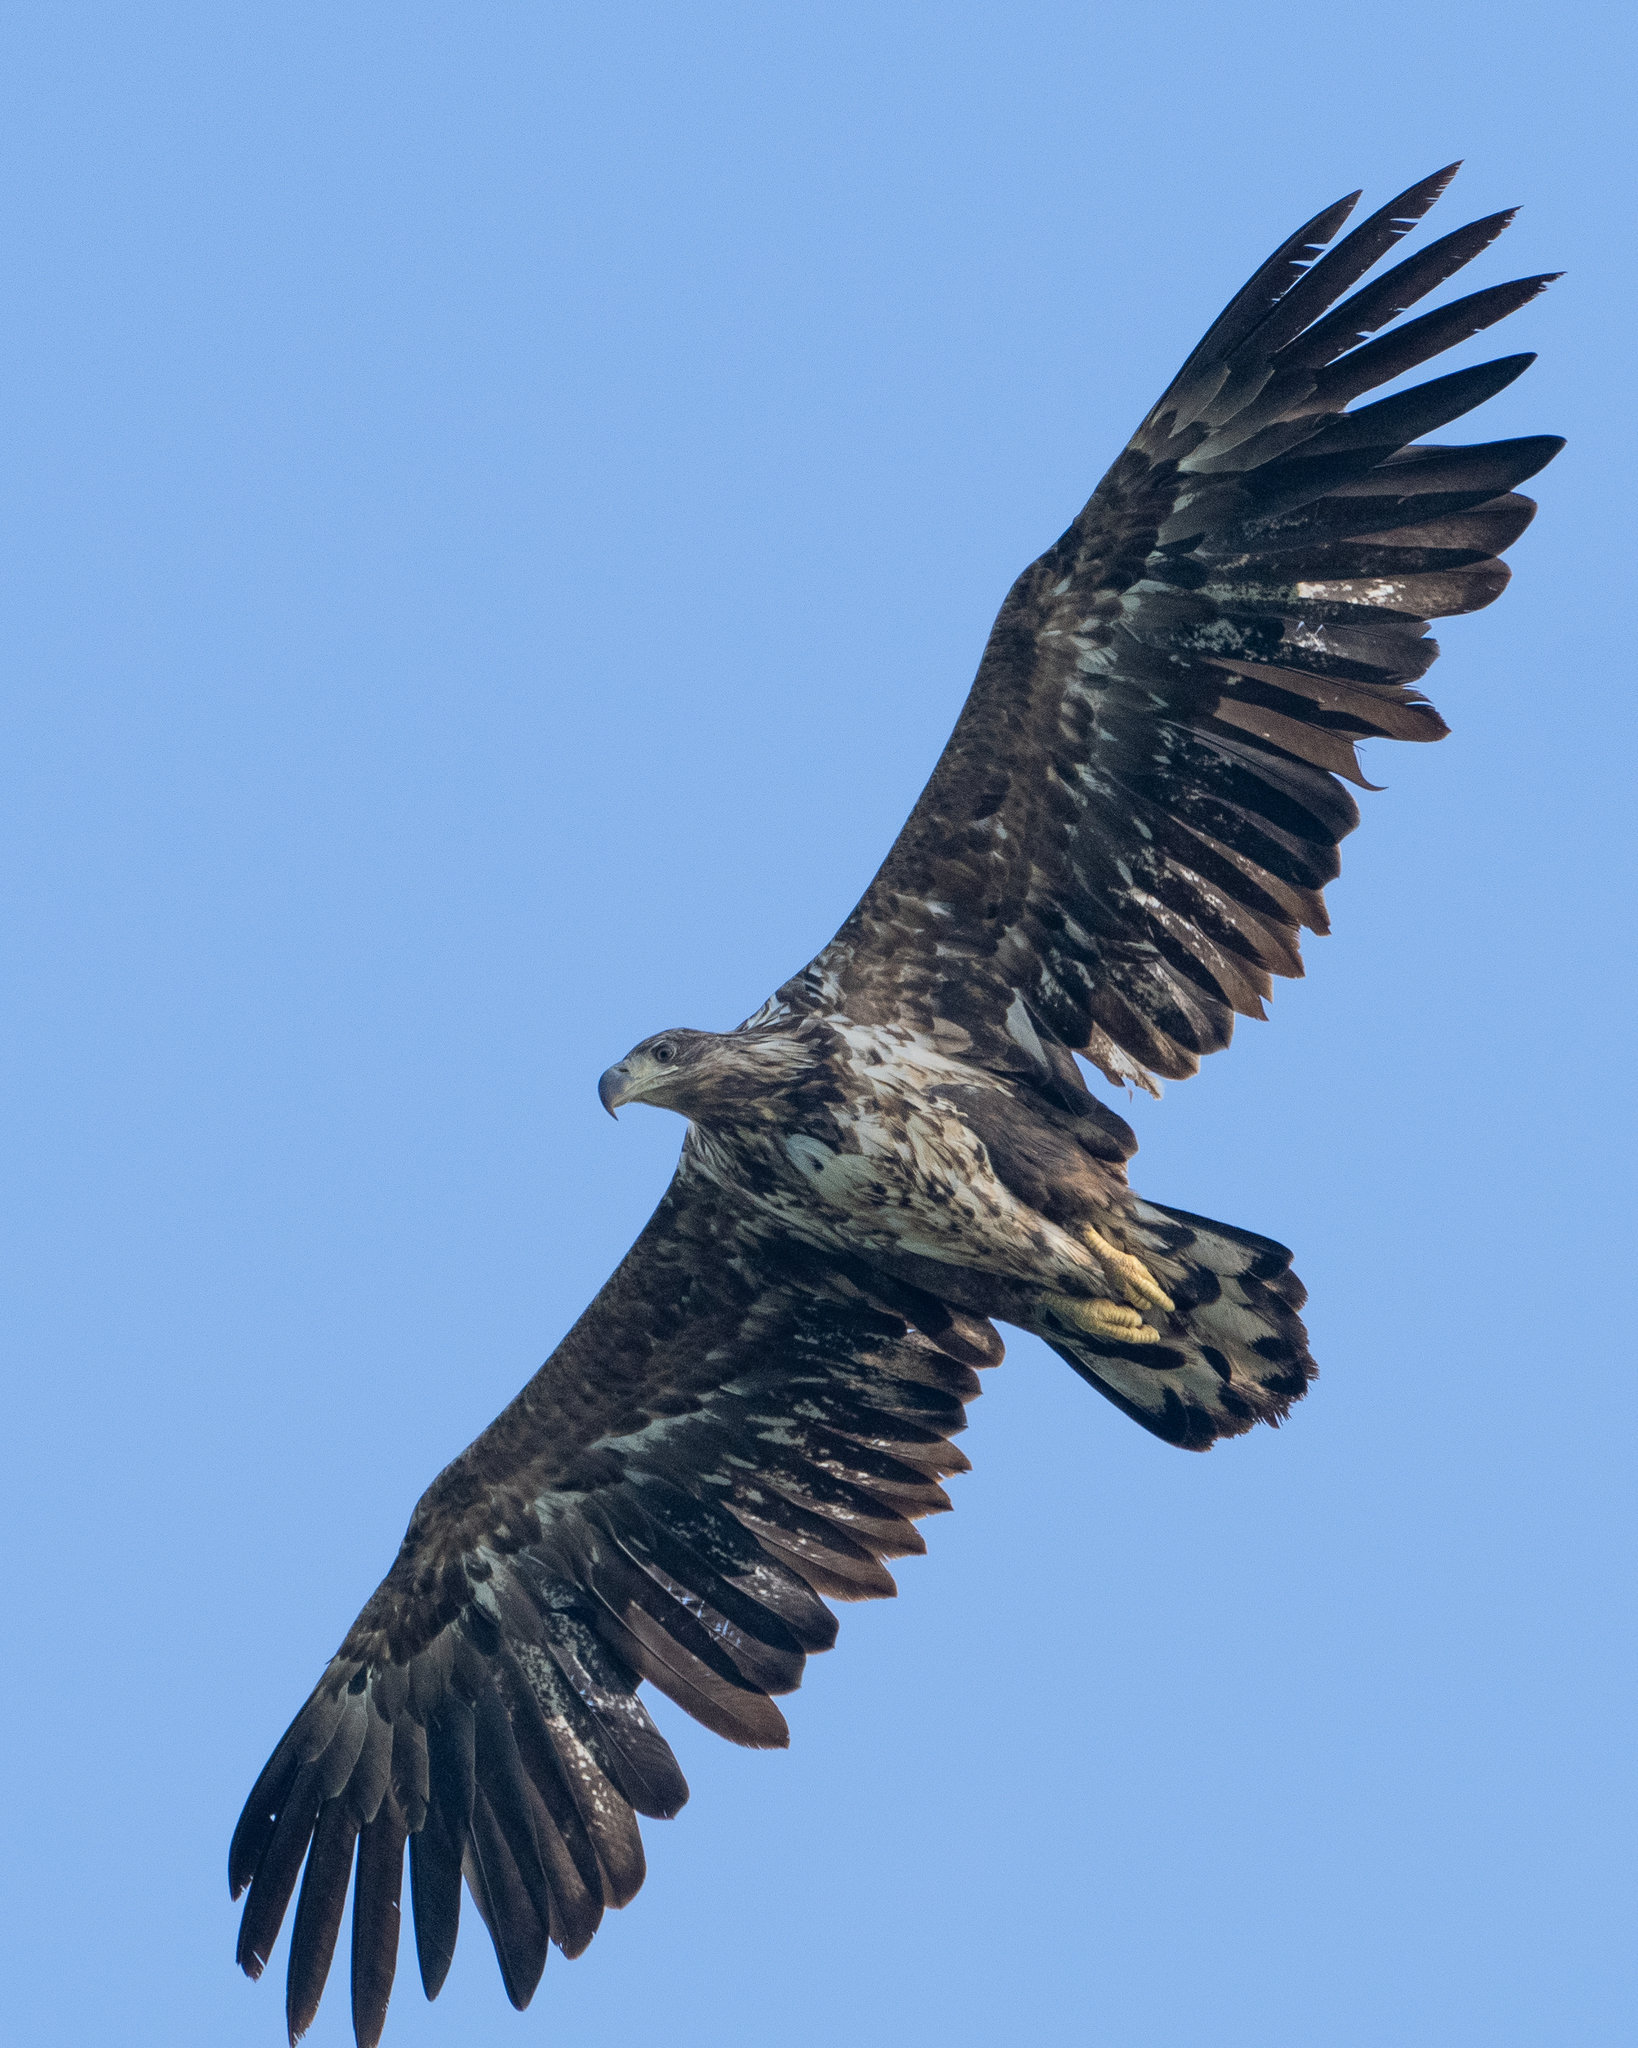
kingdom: Animalia
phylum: Chordata
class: Aves
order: Accipitriformes
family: Accipitridae
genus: Haliaeetus
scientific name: Haliaeetus albicilla
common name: White-tailed eagle
